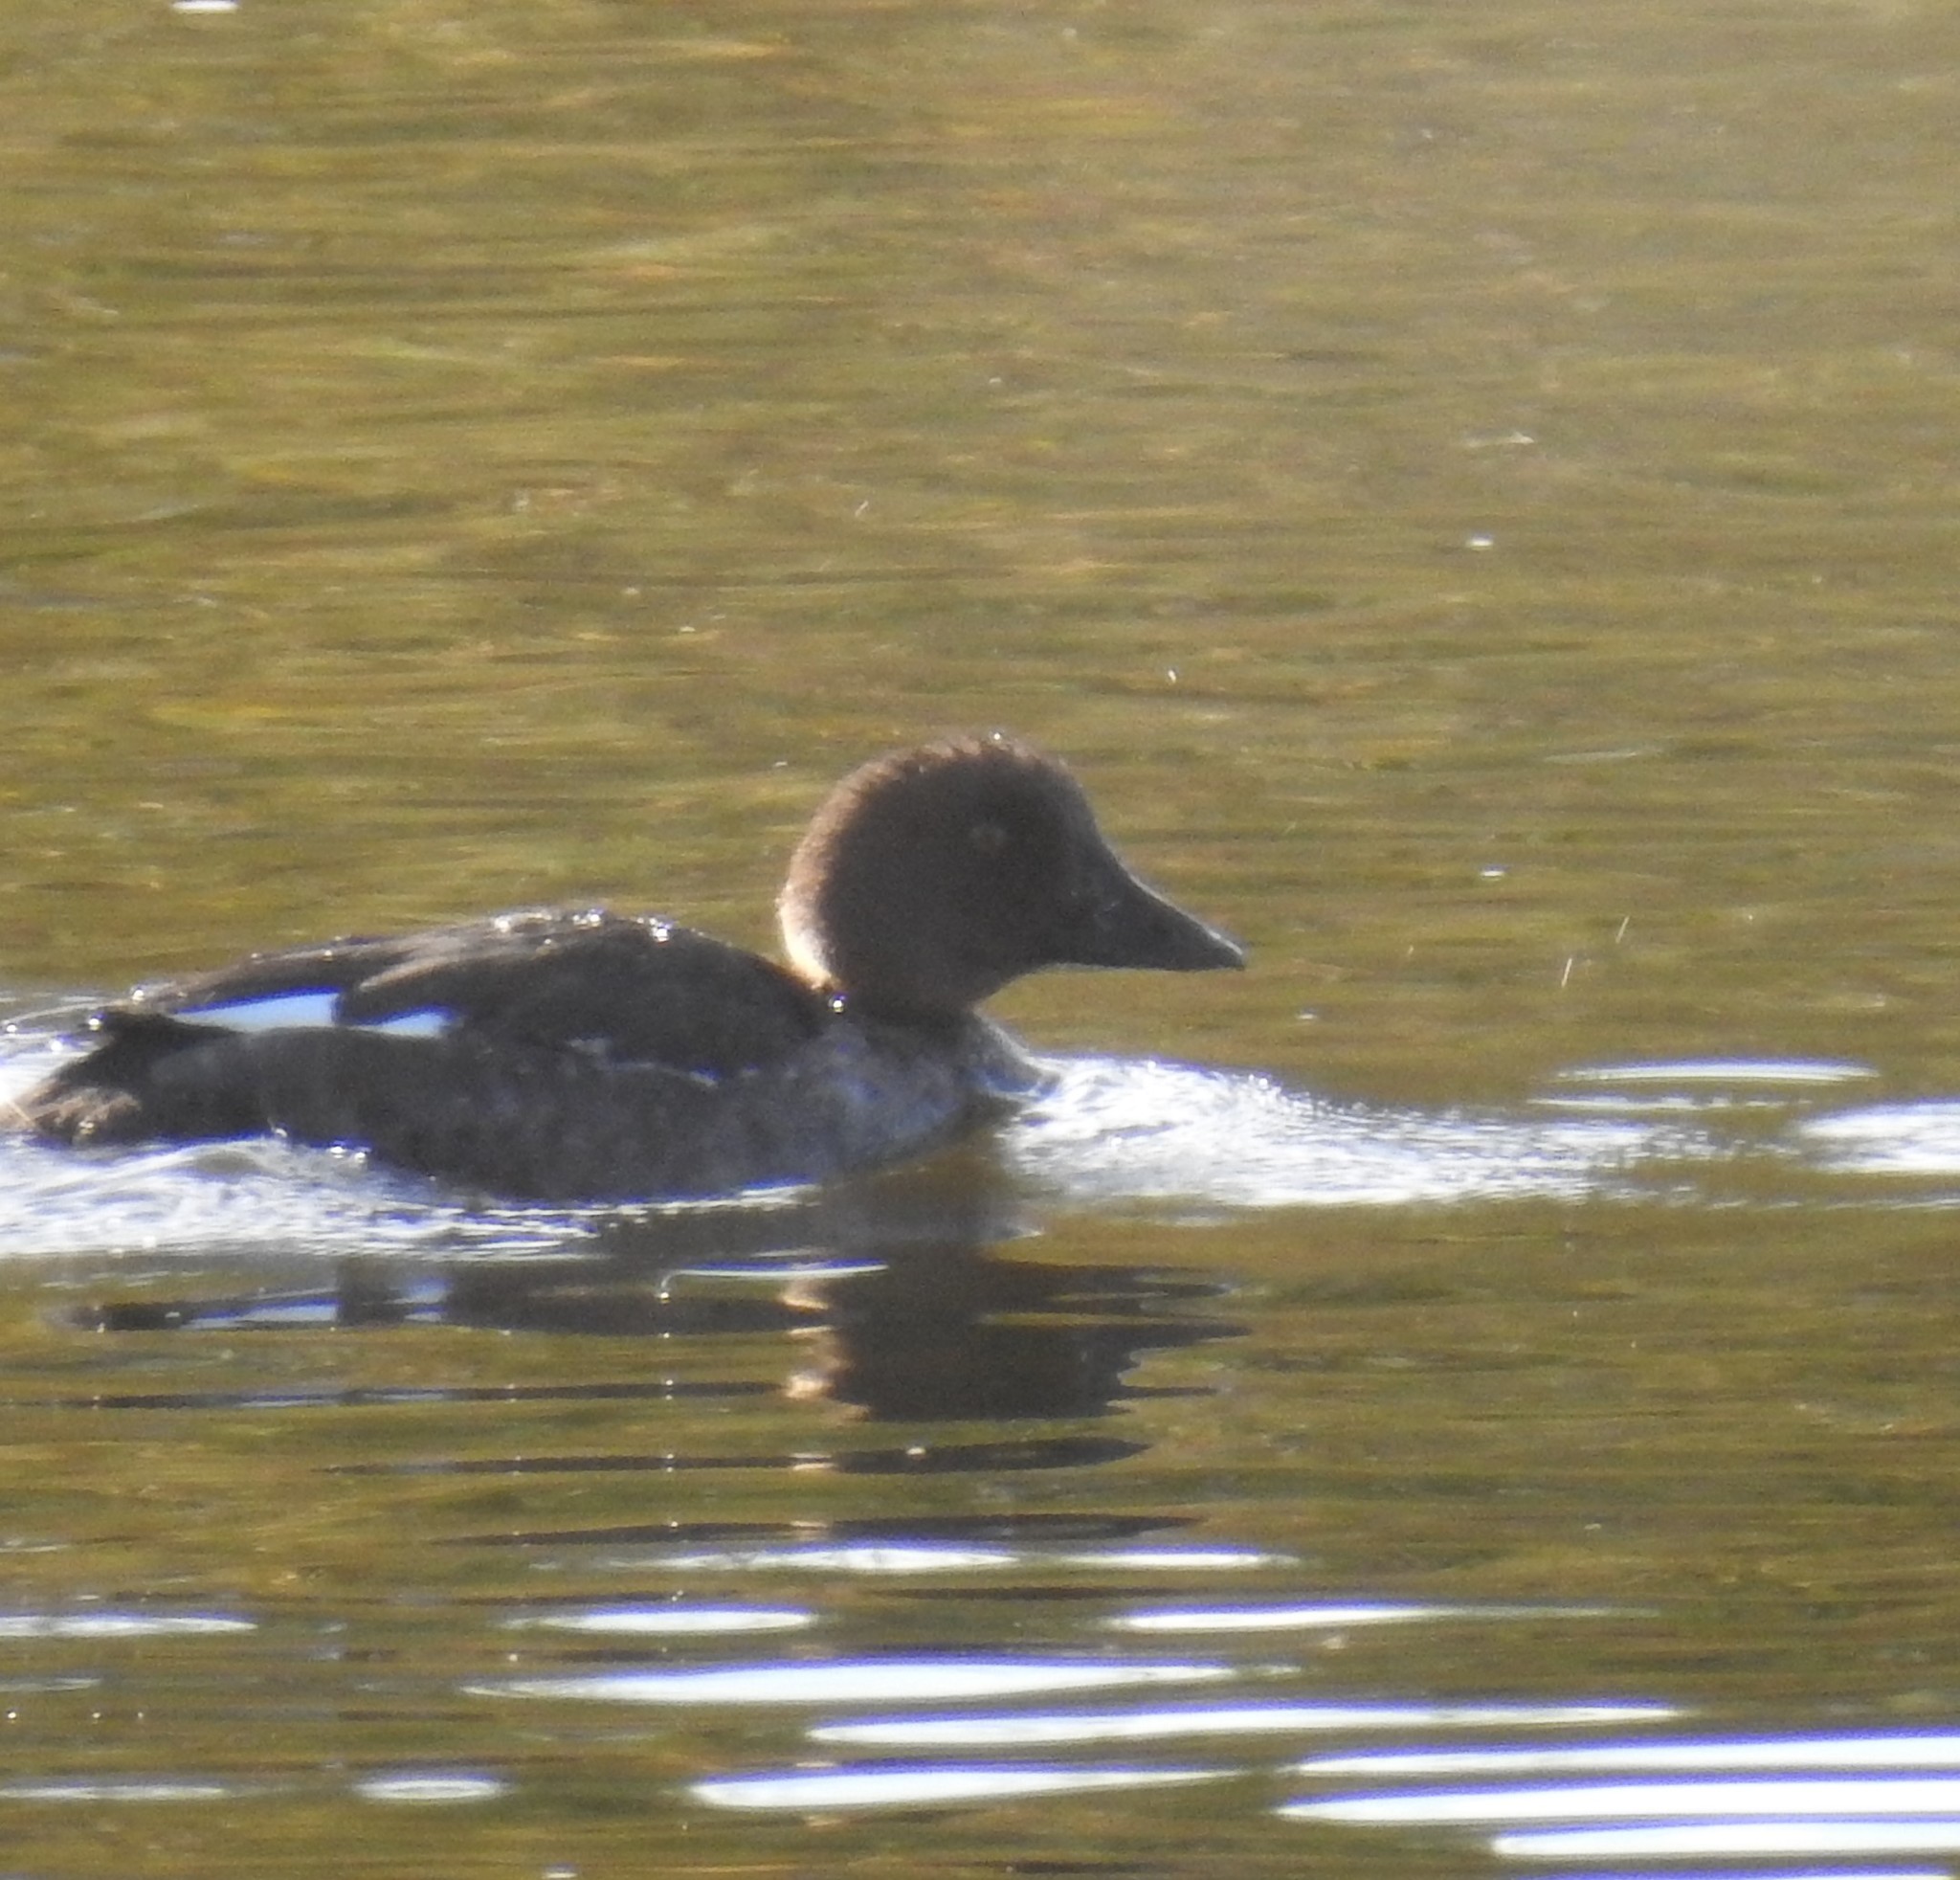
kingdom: Animalia
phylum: Chordata
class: Aves
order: Anseriformes
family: Anatidae
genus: Bucephala
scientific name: Bucephala clangula
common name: Common goldeneye
